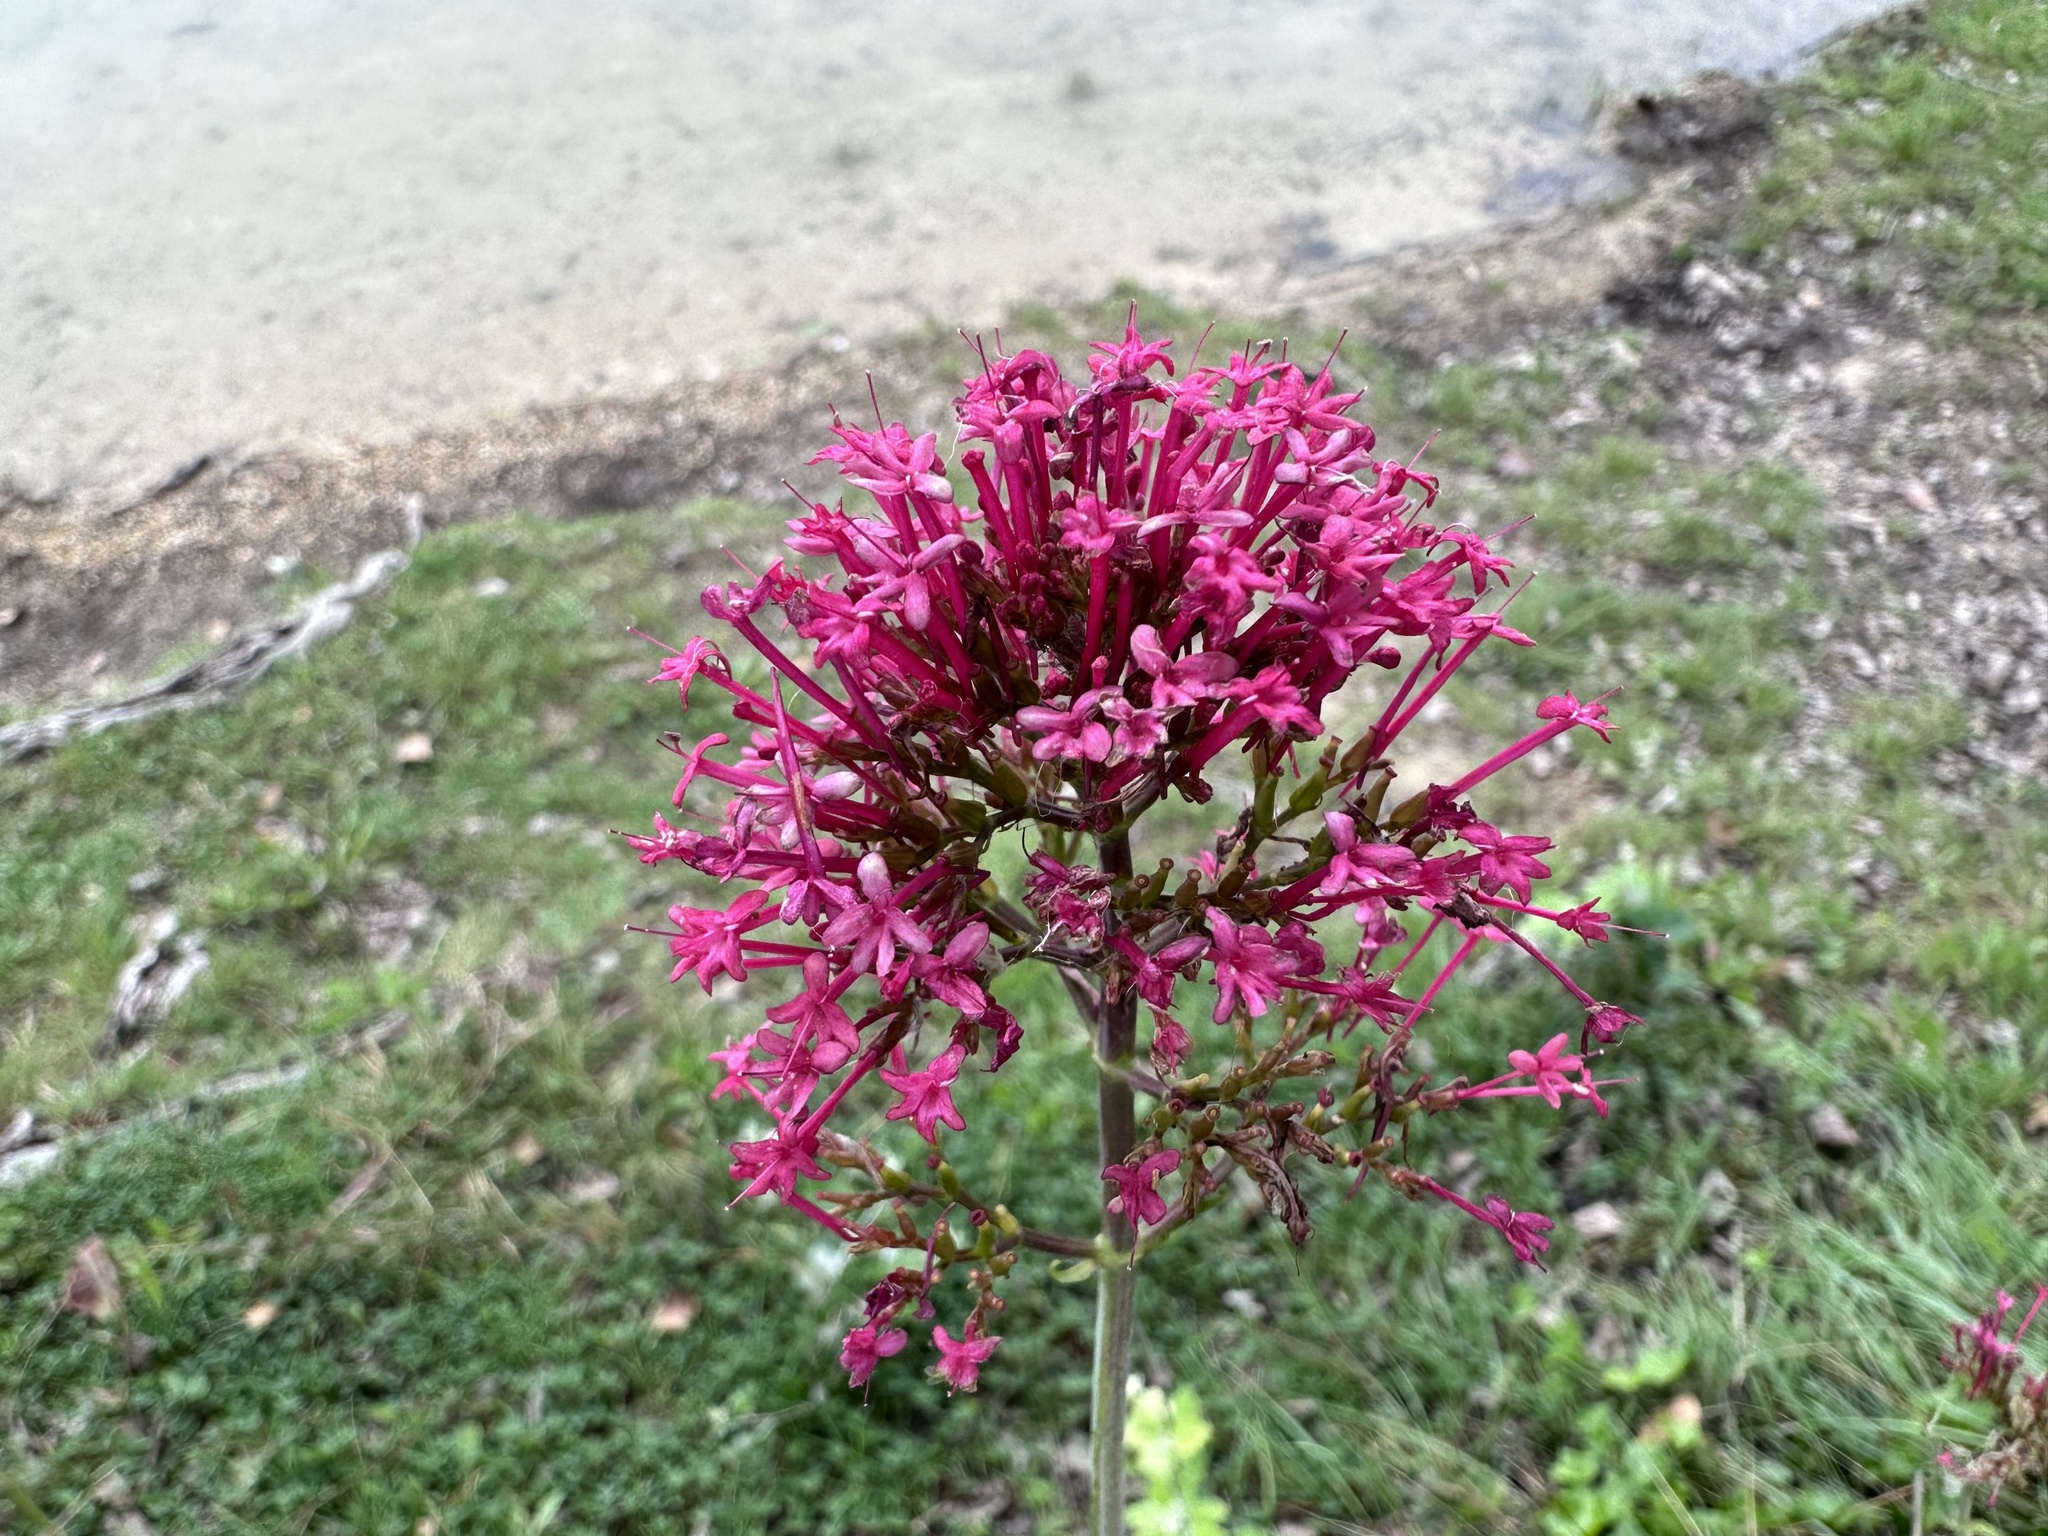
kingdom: Plantae
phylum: Tracheophyta
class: Magnoliopsida
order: Dipsacales
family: Caprifoliaceae
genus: Centranthus
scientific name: Centranthus ruber
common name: Red valerian
